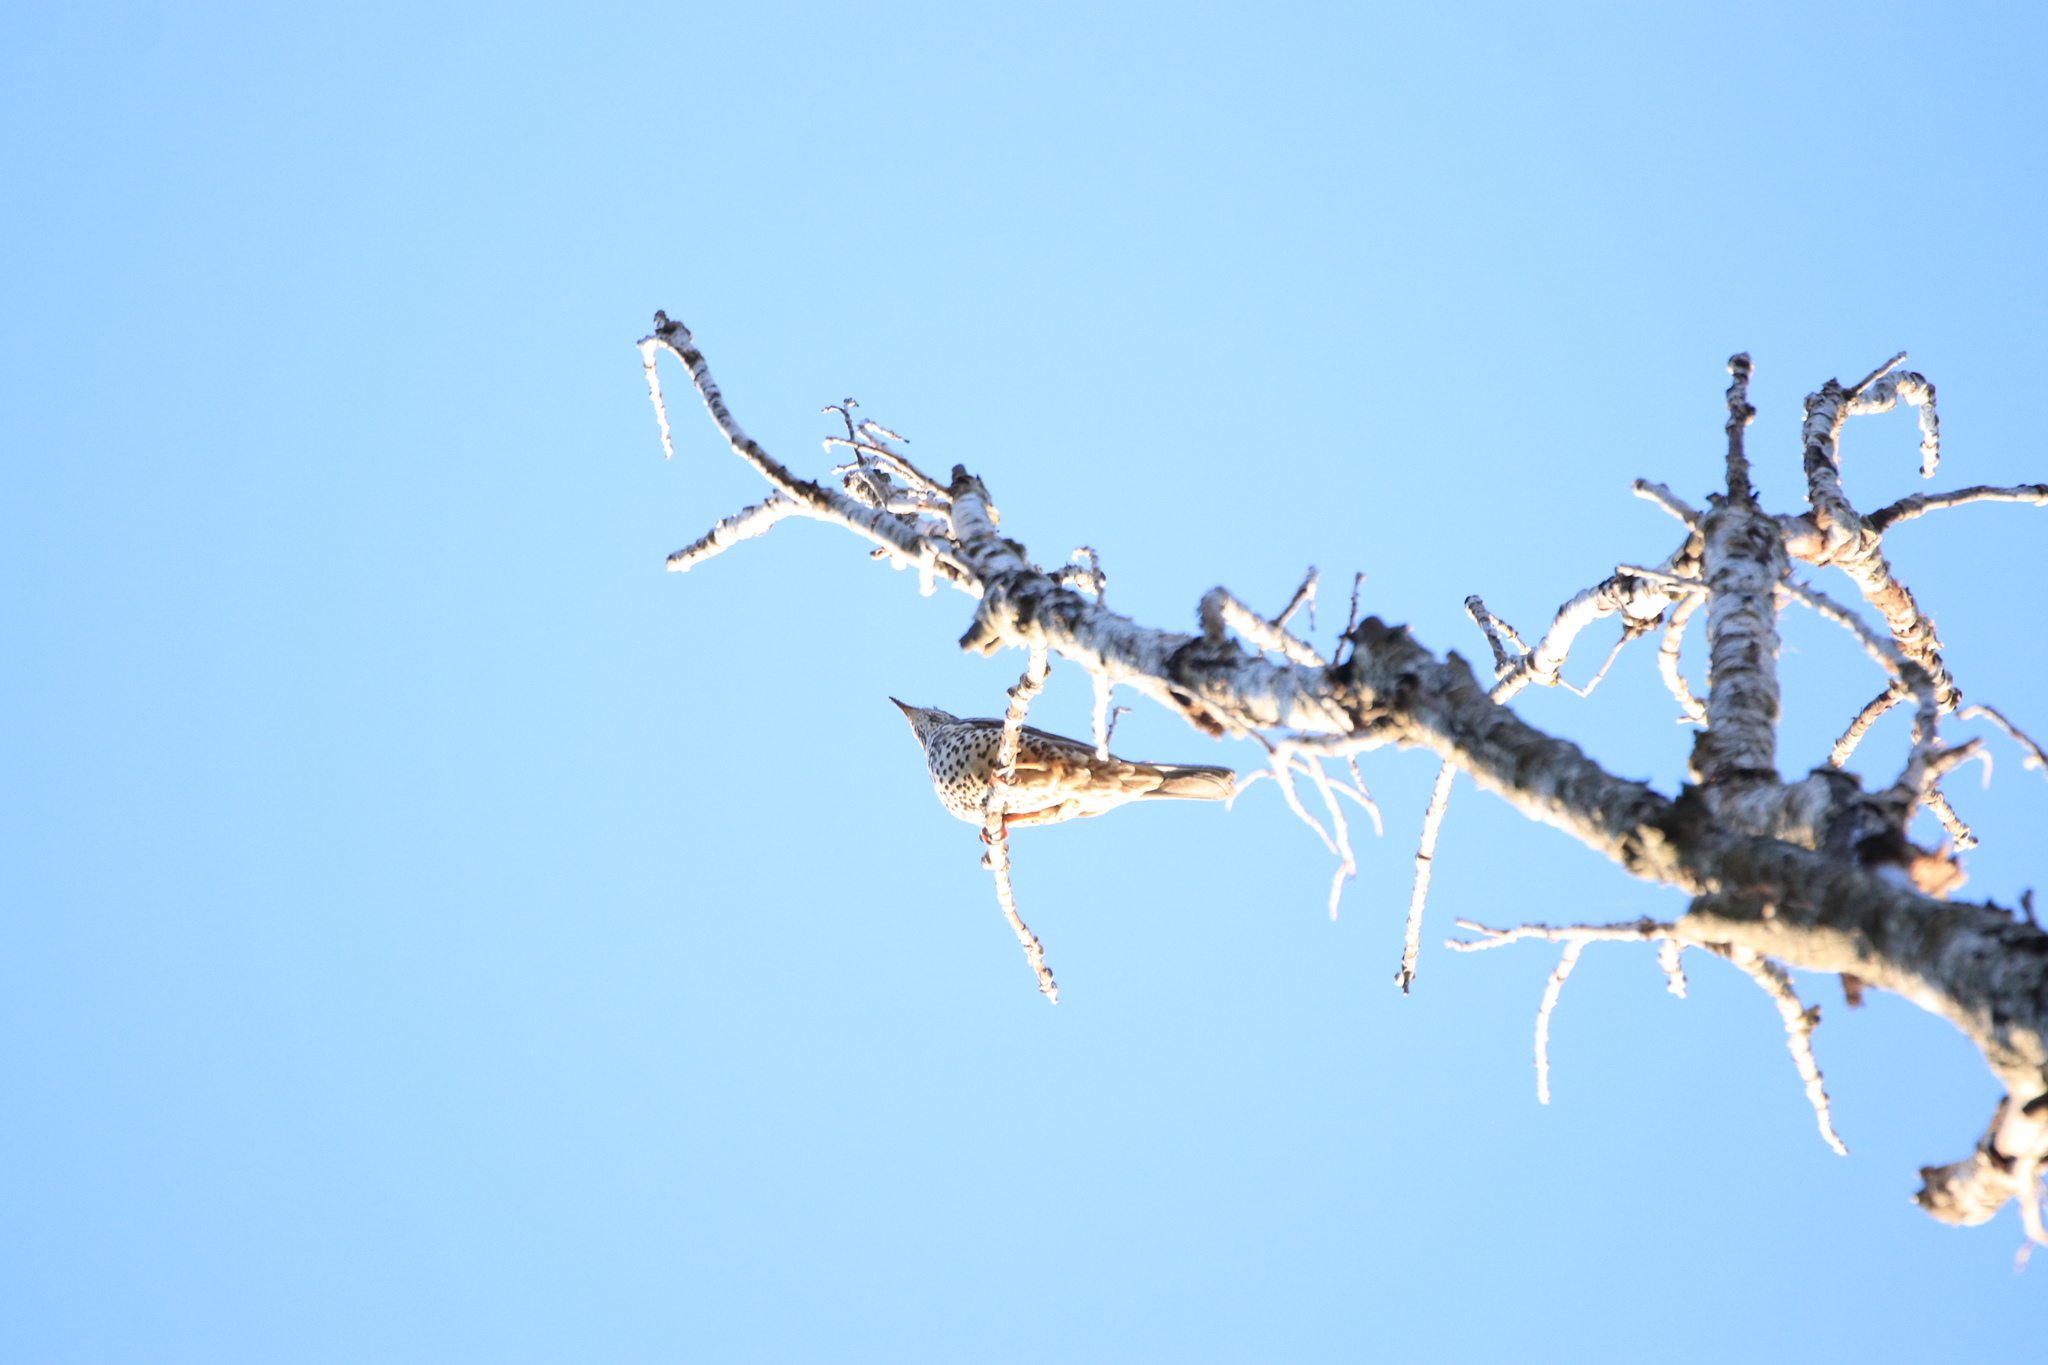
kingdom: Animalia
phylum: Chordata
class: Aves
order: Passeriformes
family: Turdidae
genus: Turdus
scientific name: Turdus viscivorus
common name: Mistle thrush
